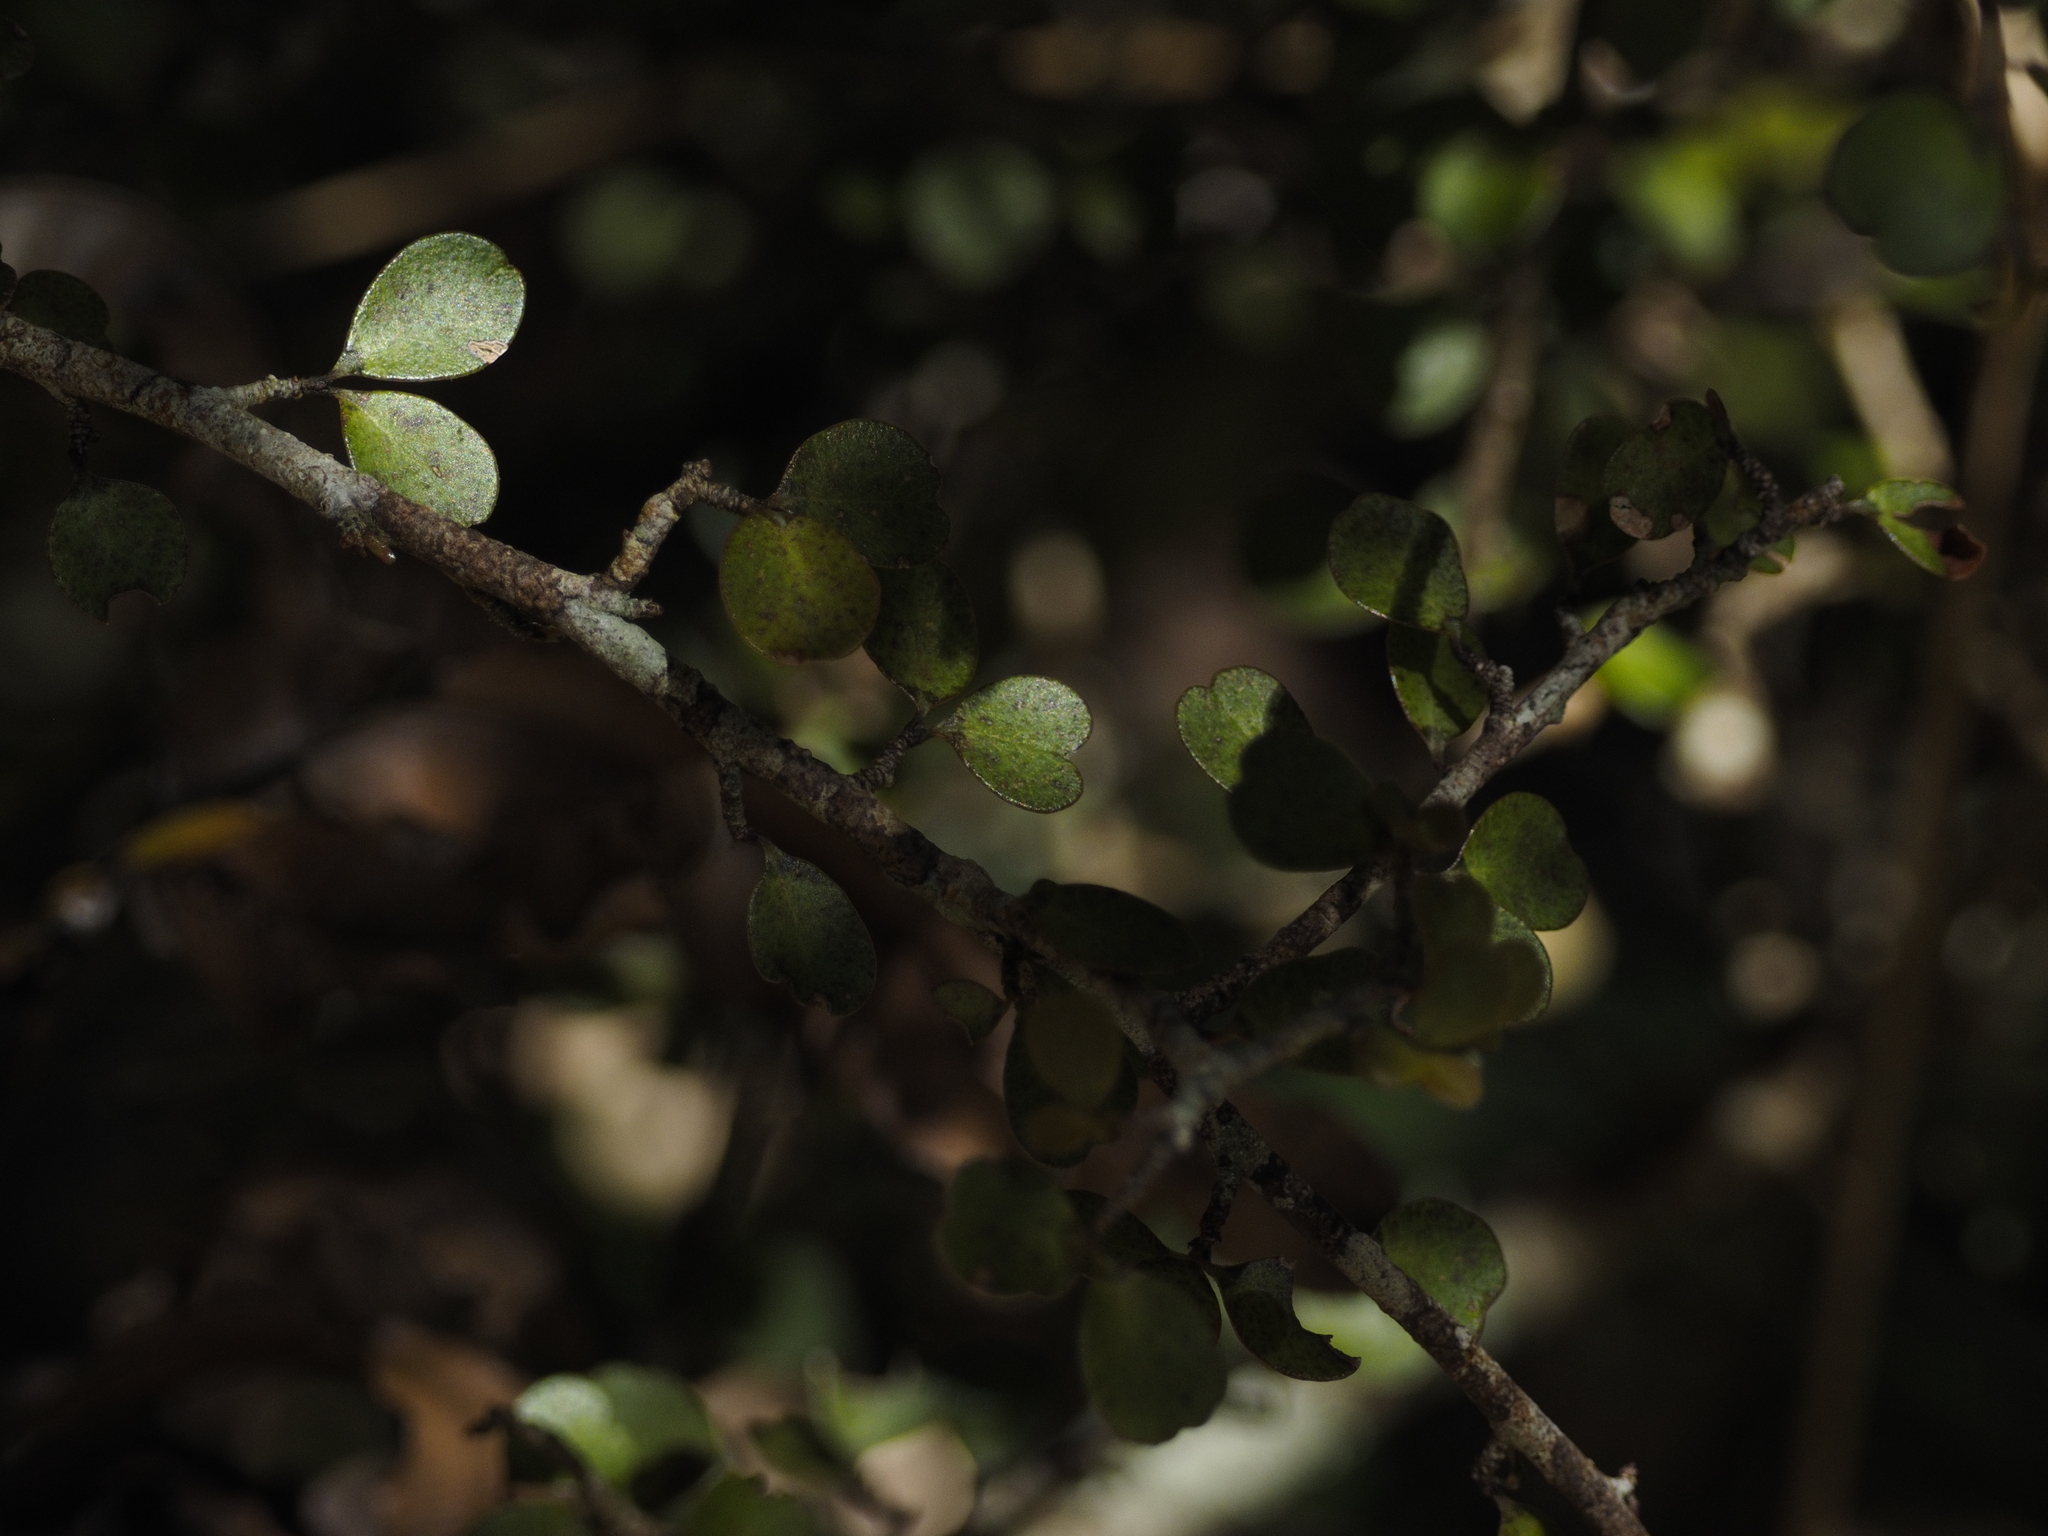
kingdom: Plantae
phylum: Tracheophyta
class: Magnoliopsida
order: Ericales
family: Primulaceae
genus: Myrsine
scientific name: Myrsine divaricata
